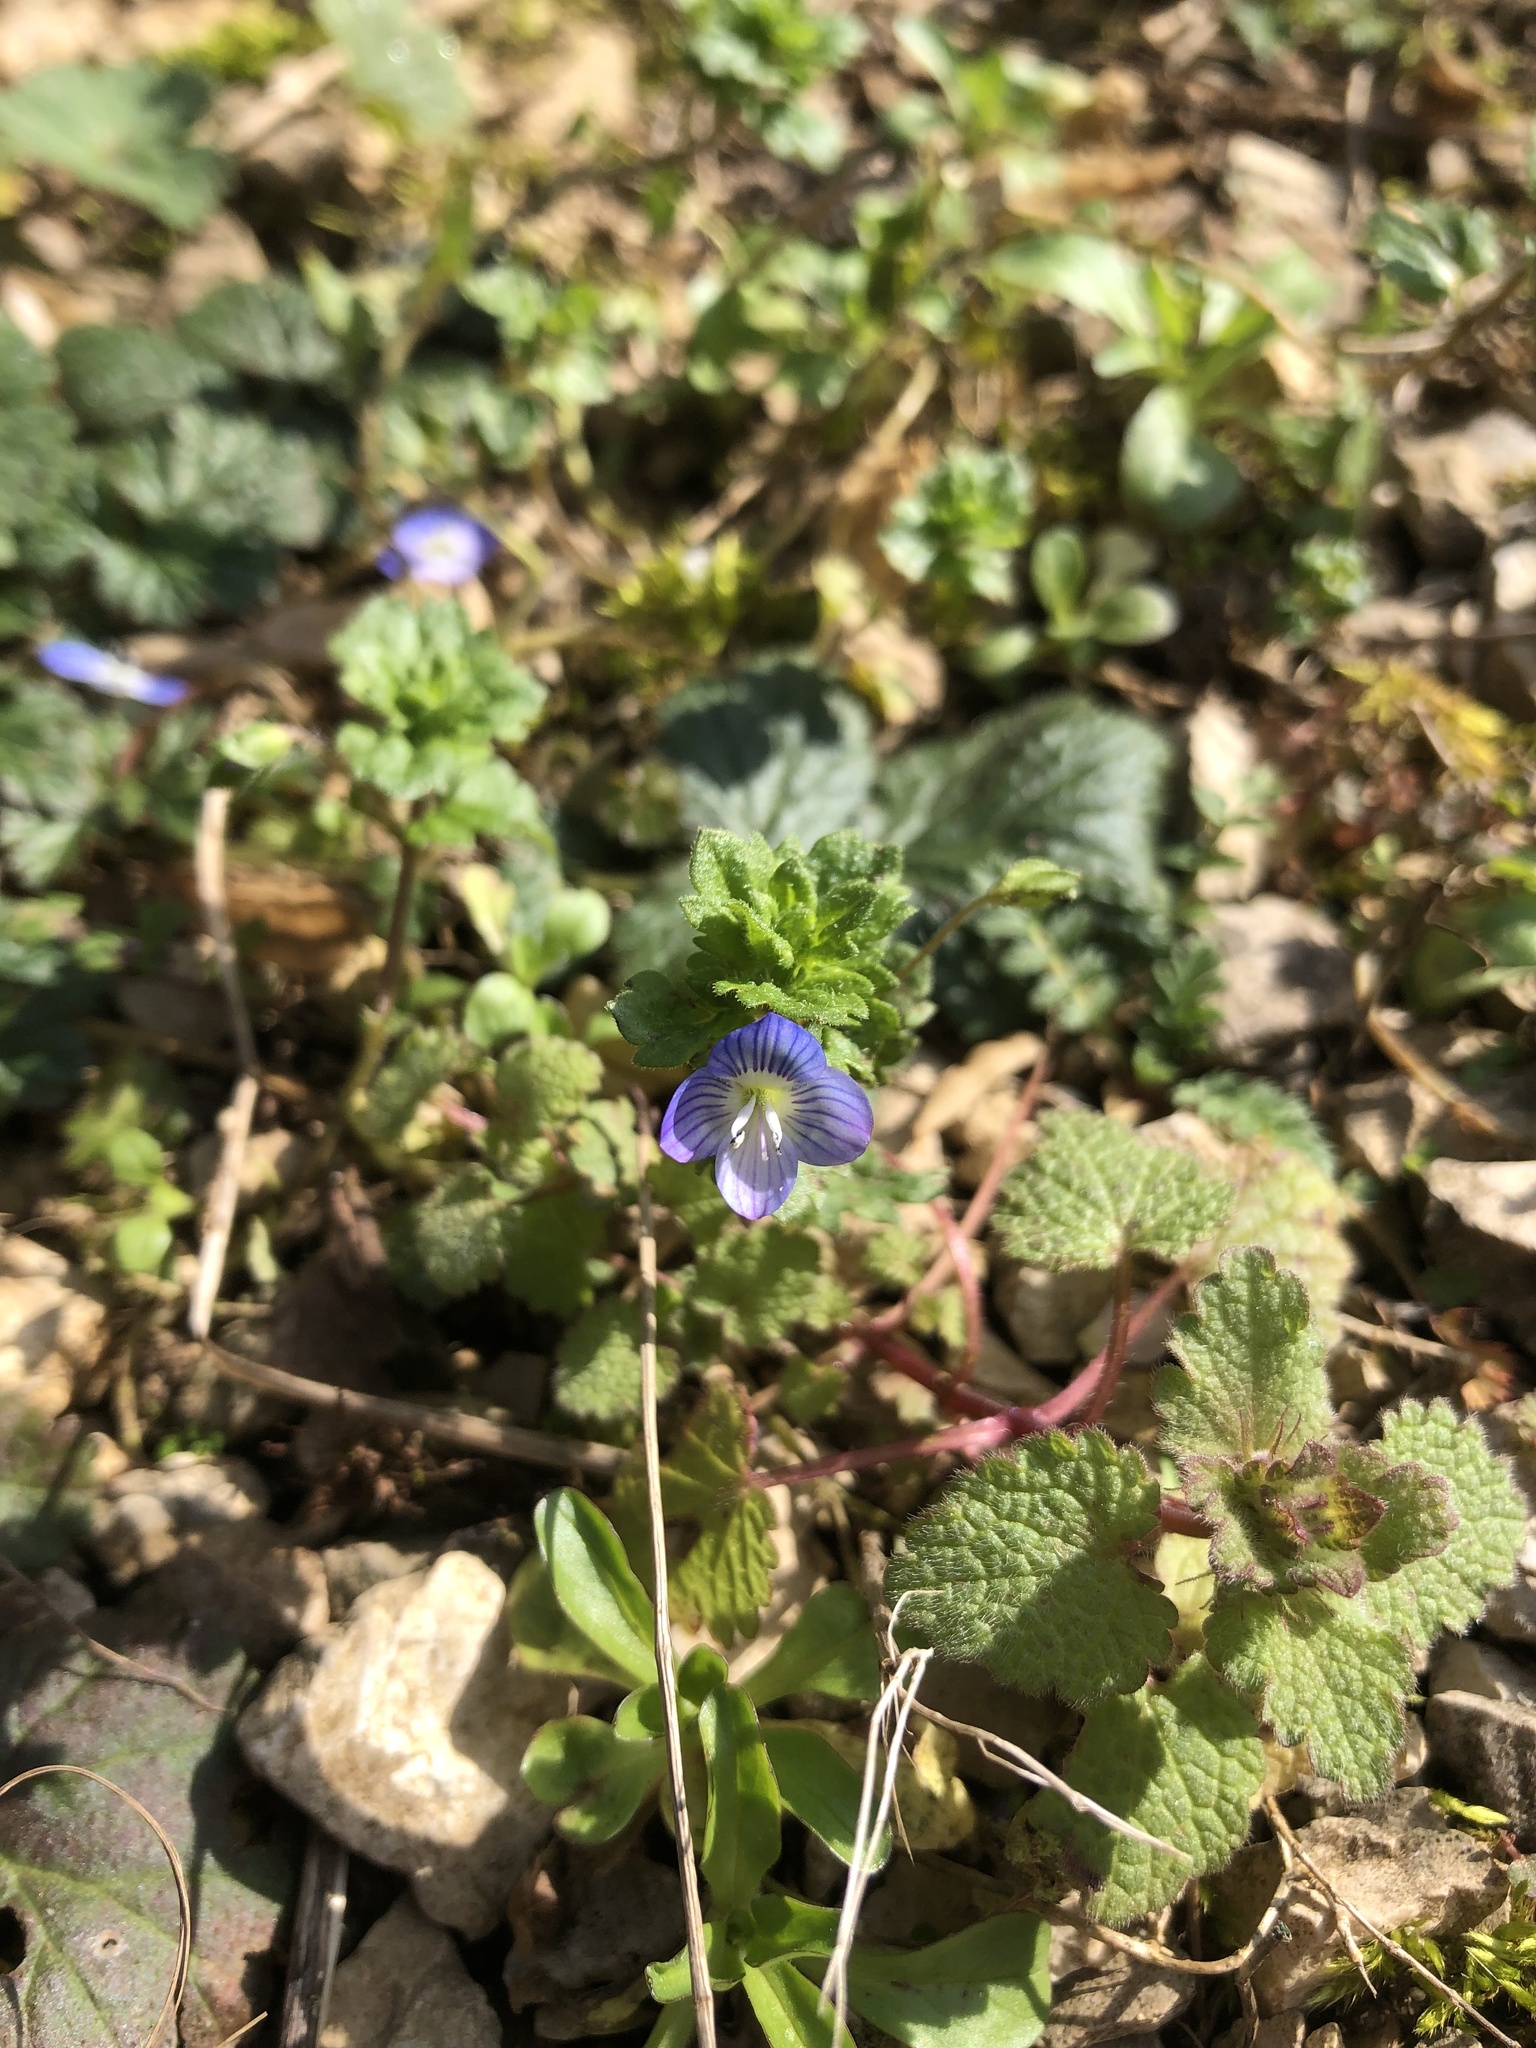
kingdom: Plantae
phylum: Tracheophyta
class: Magnoliopsida
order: Lamiales
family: Plantaginaceae
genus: Veronica
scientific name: Veronica persica
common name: Common field-speedwell
